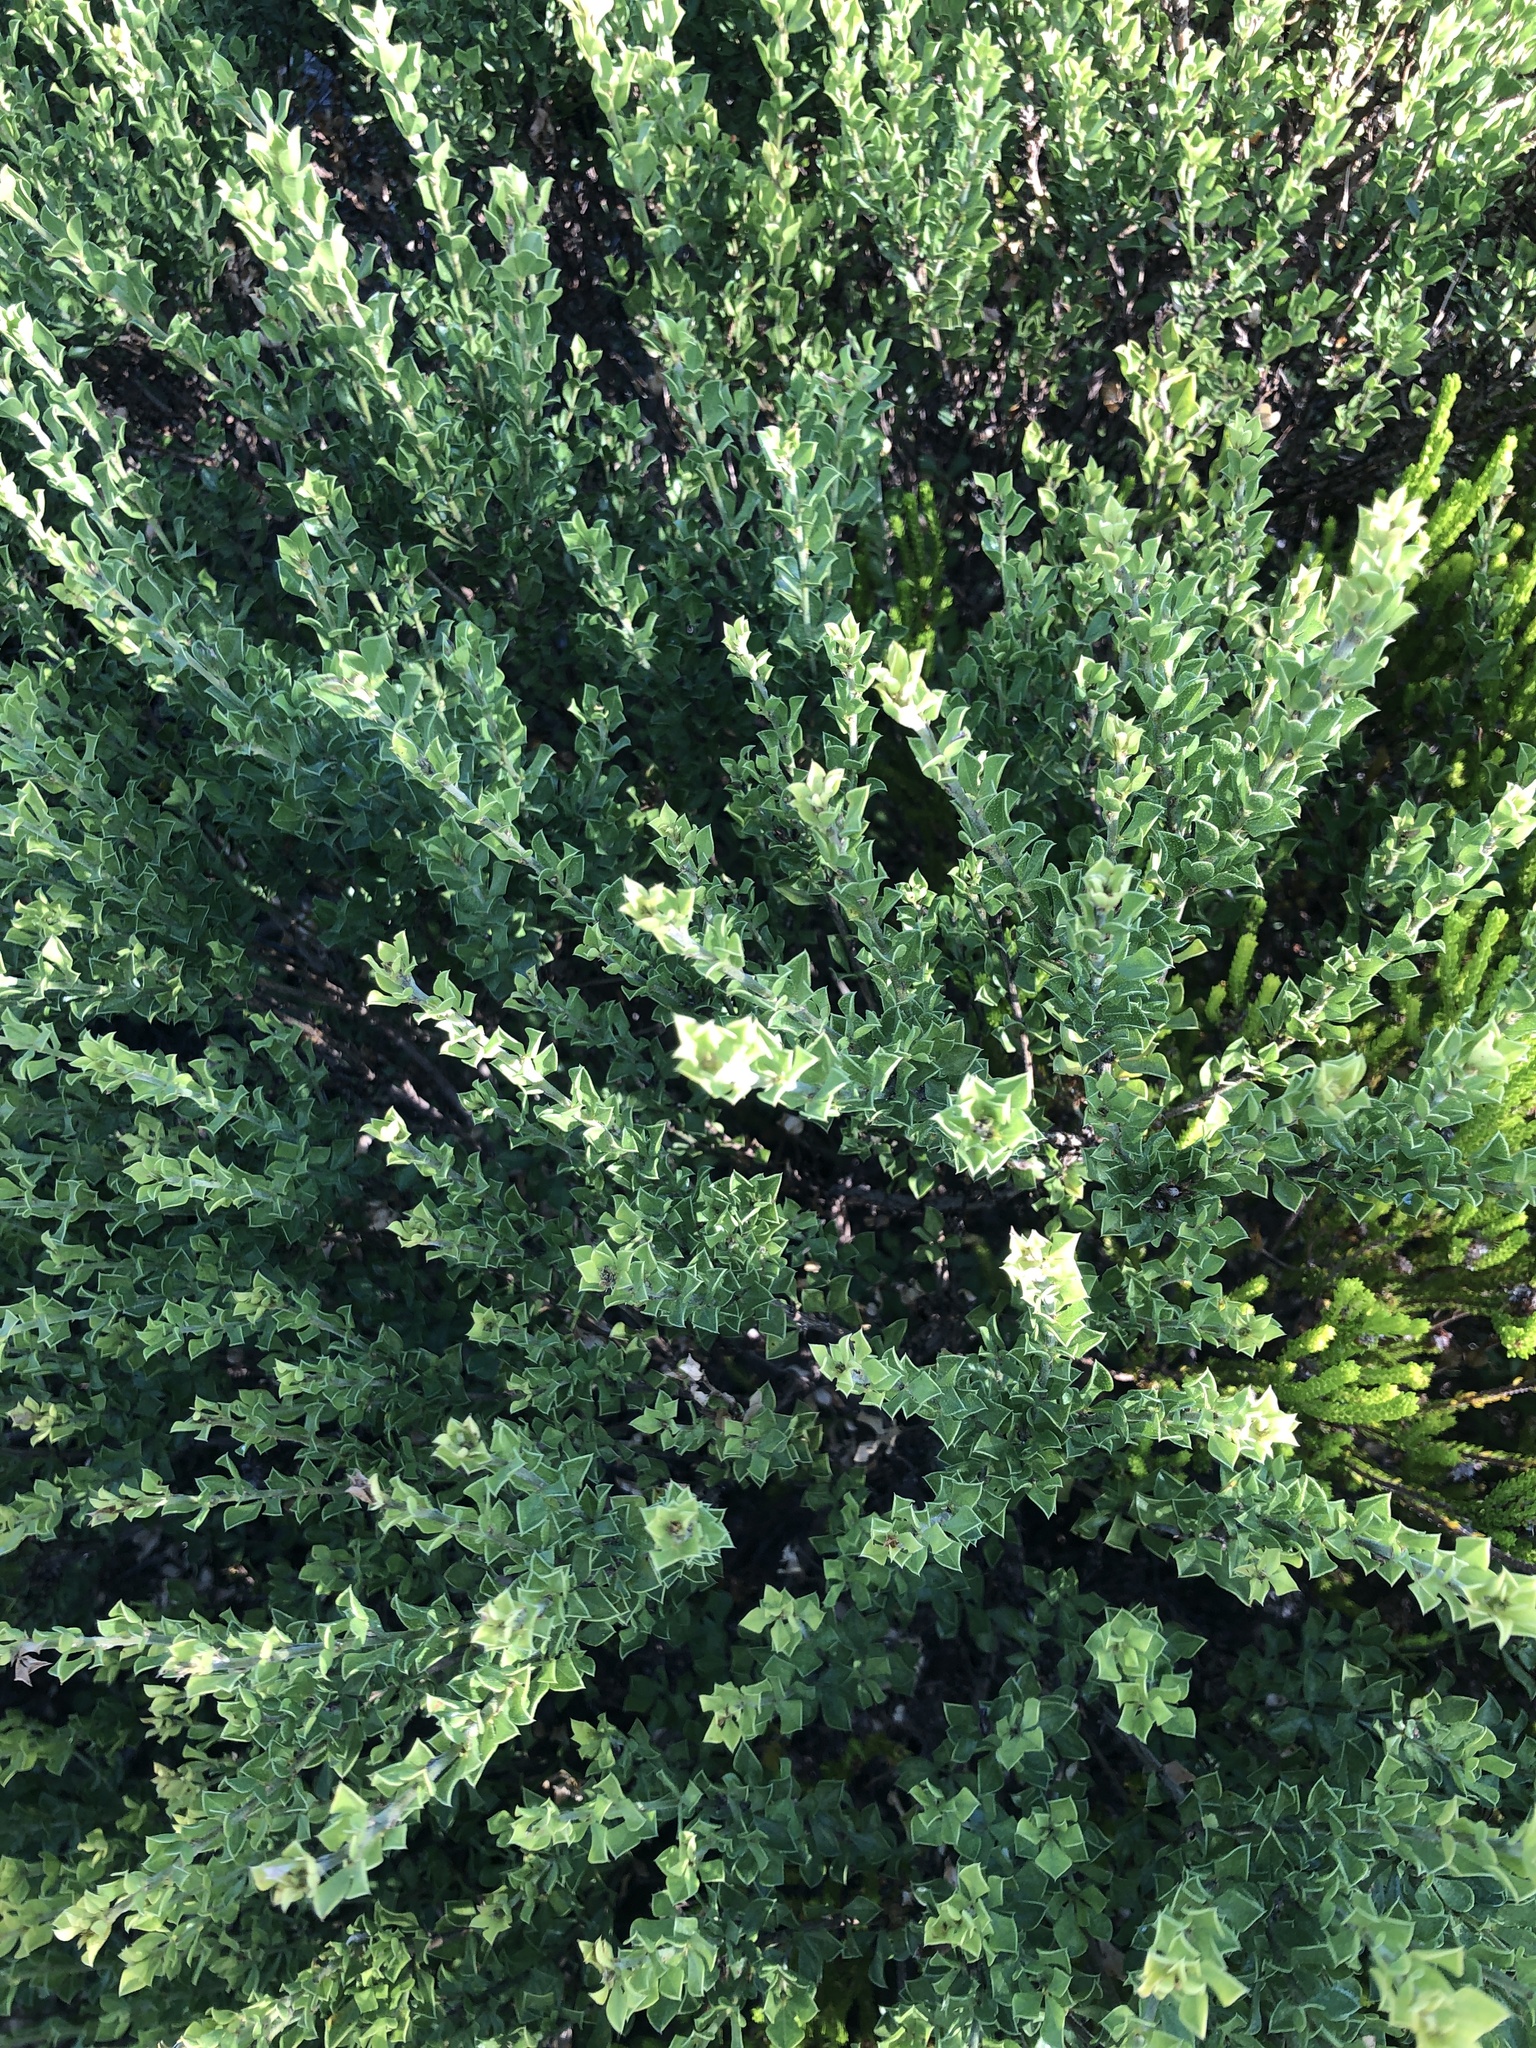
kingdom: Plantae
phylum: Tracheophyta
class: Magnoliopsida
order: Fabales
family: Fabaceae
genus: Psoralea
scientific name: Psoralea bracteolata
